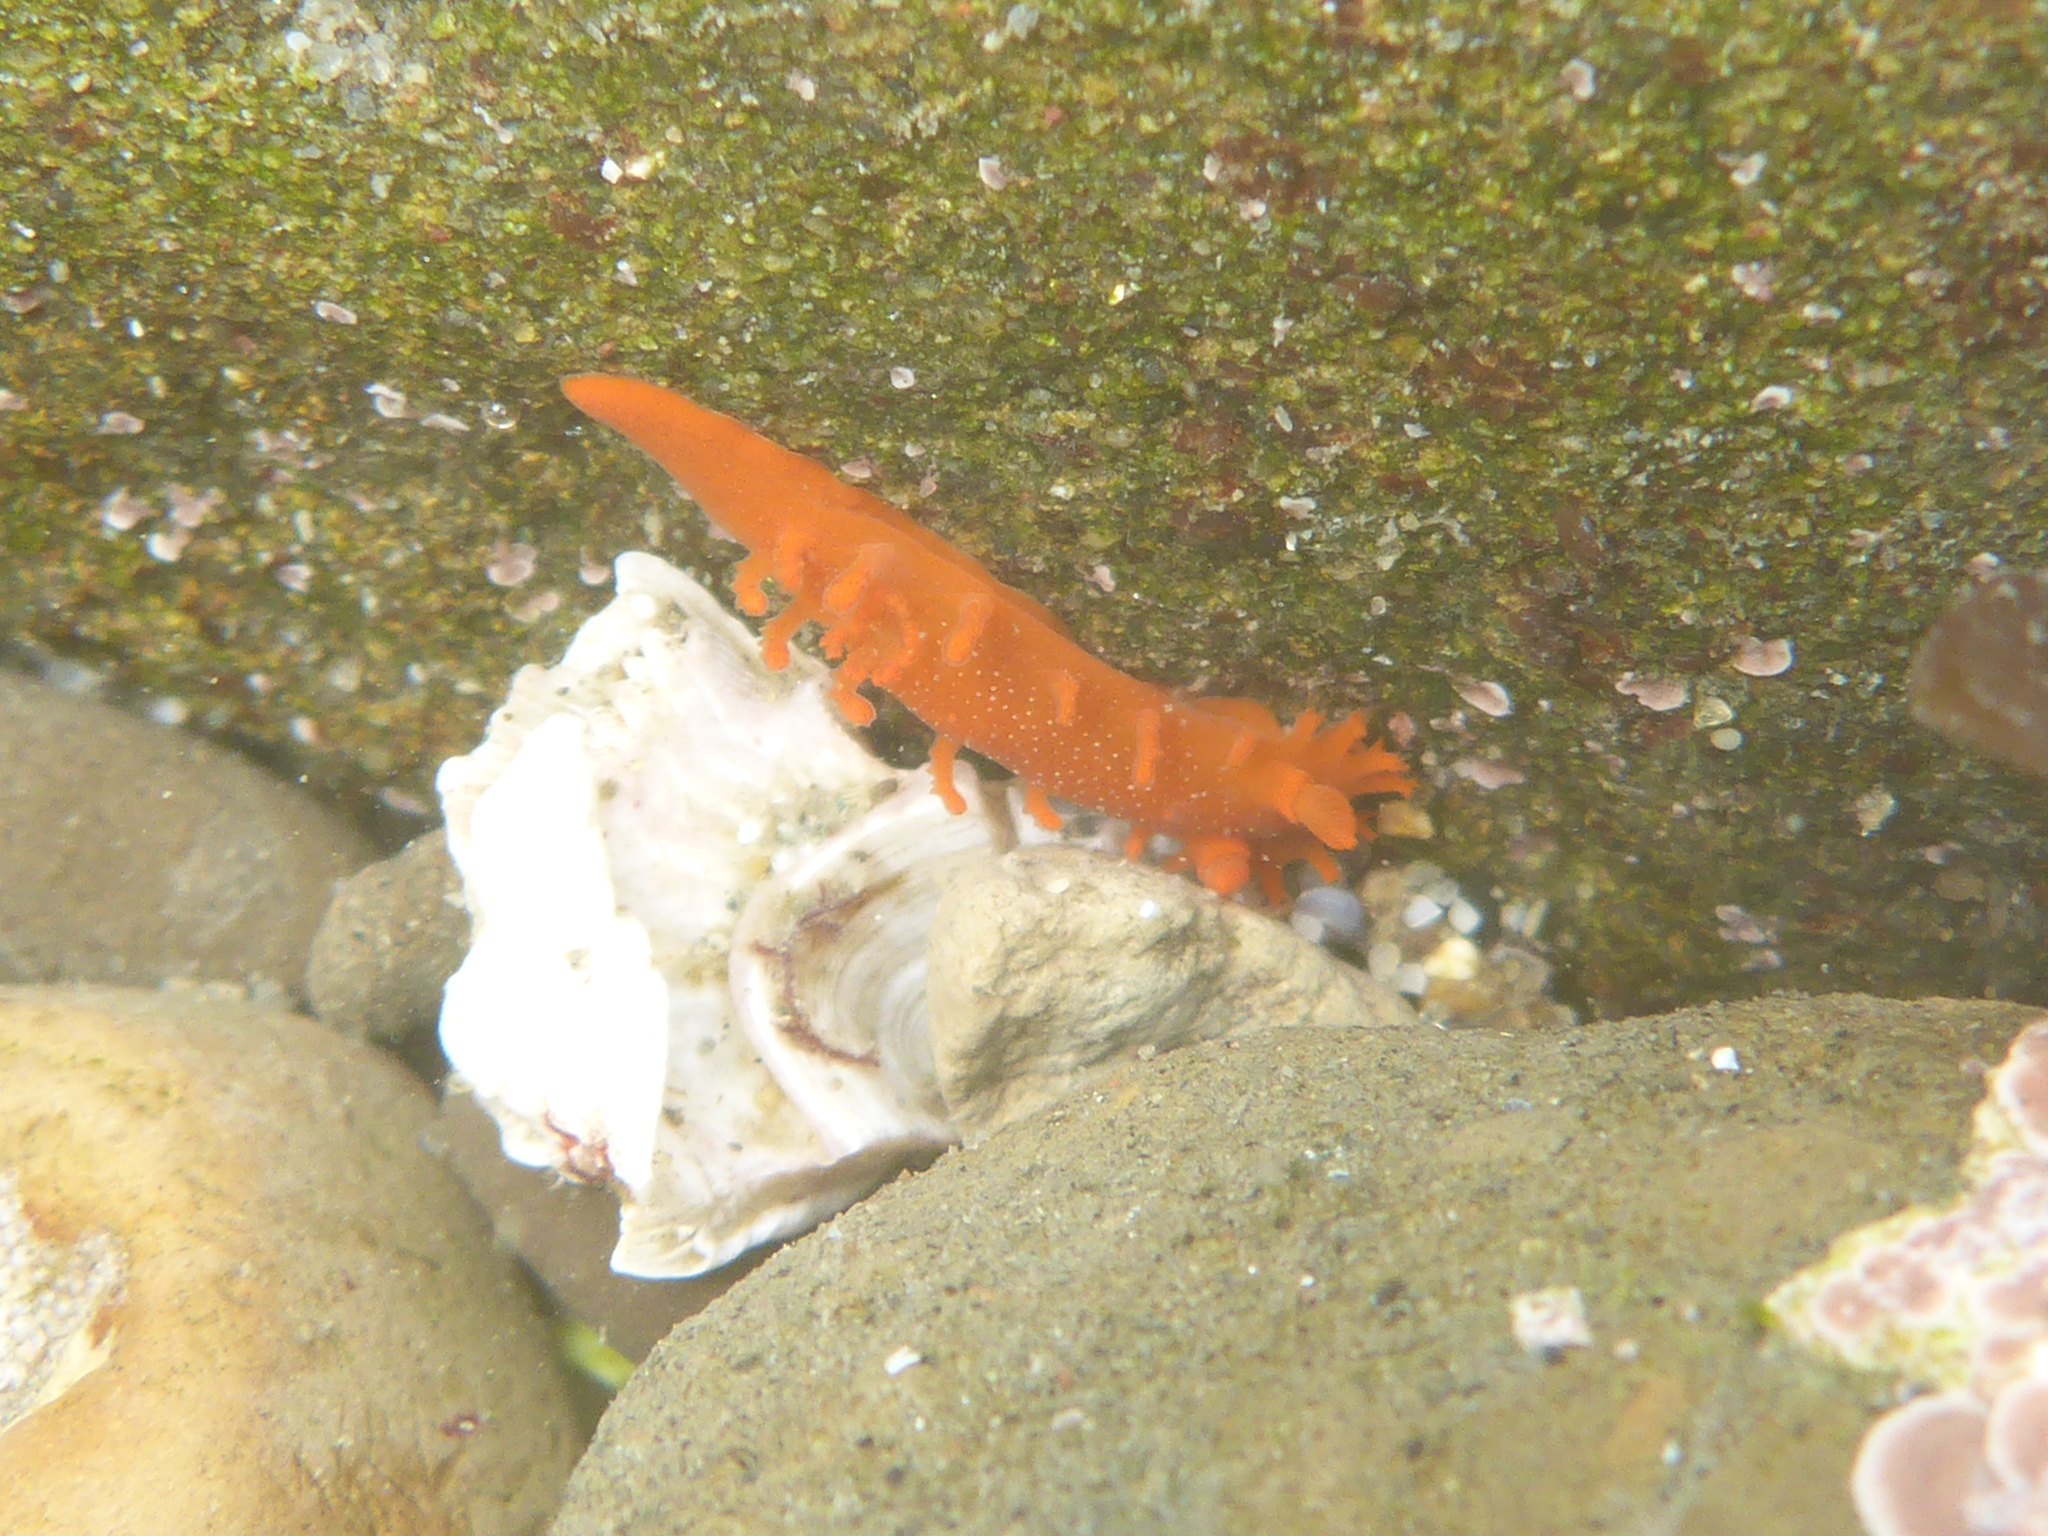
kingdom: Animalia
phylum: Mollusca
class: Gastropoda
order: Nudibranchia
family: Polyceridae
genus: Triopha
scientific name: Triopha maculata
